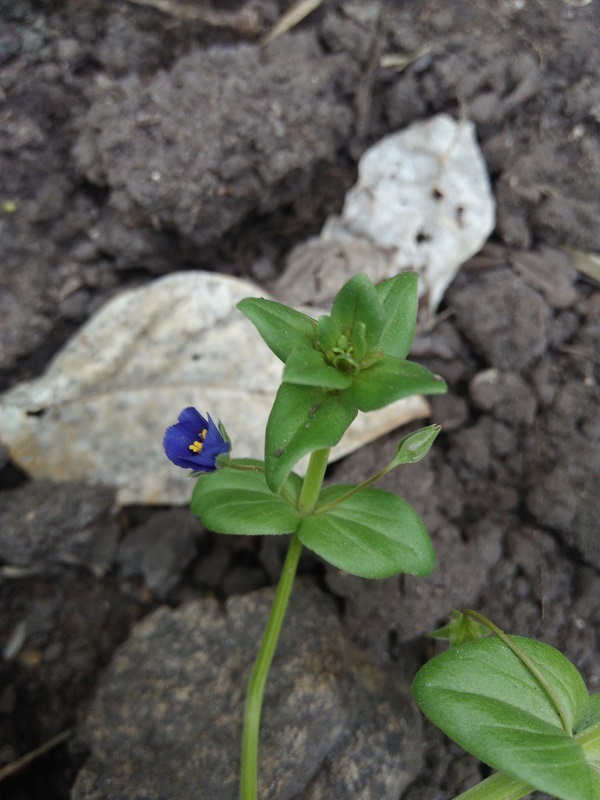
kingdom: Plantae
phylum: Tracheophyta
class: Magnoliopsida
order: Ericales
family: Primulaceae
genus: Lysimachia
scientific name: Lysimachia arvensis
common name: Scarlet pimpernel
